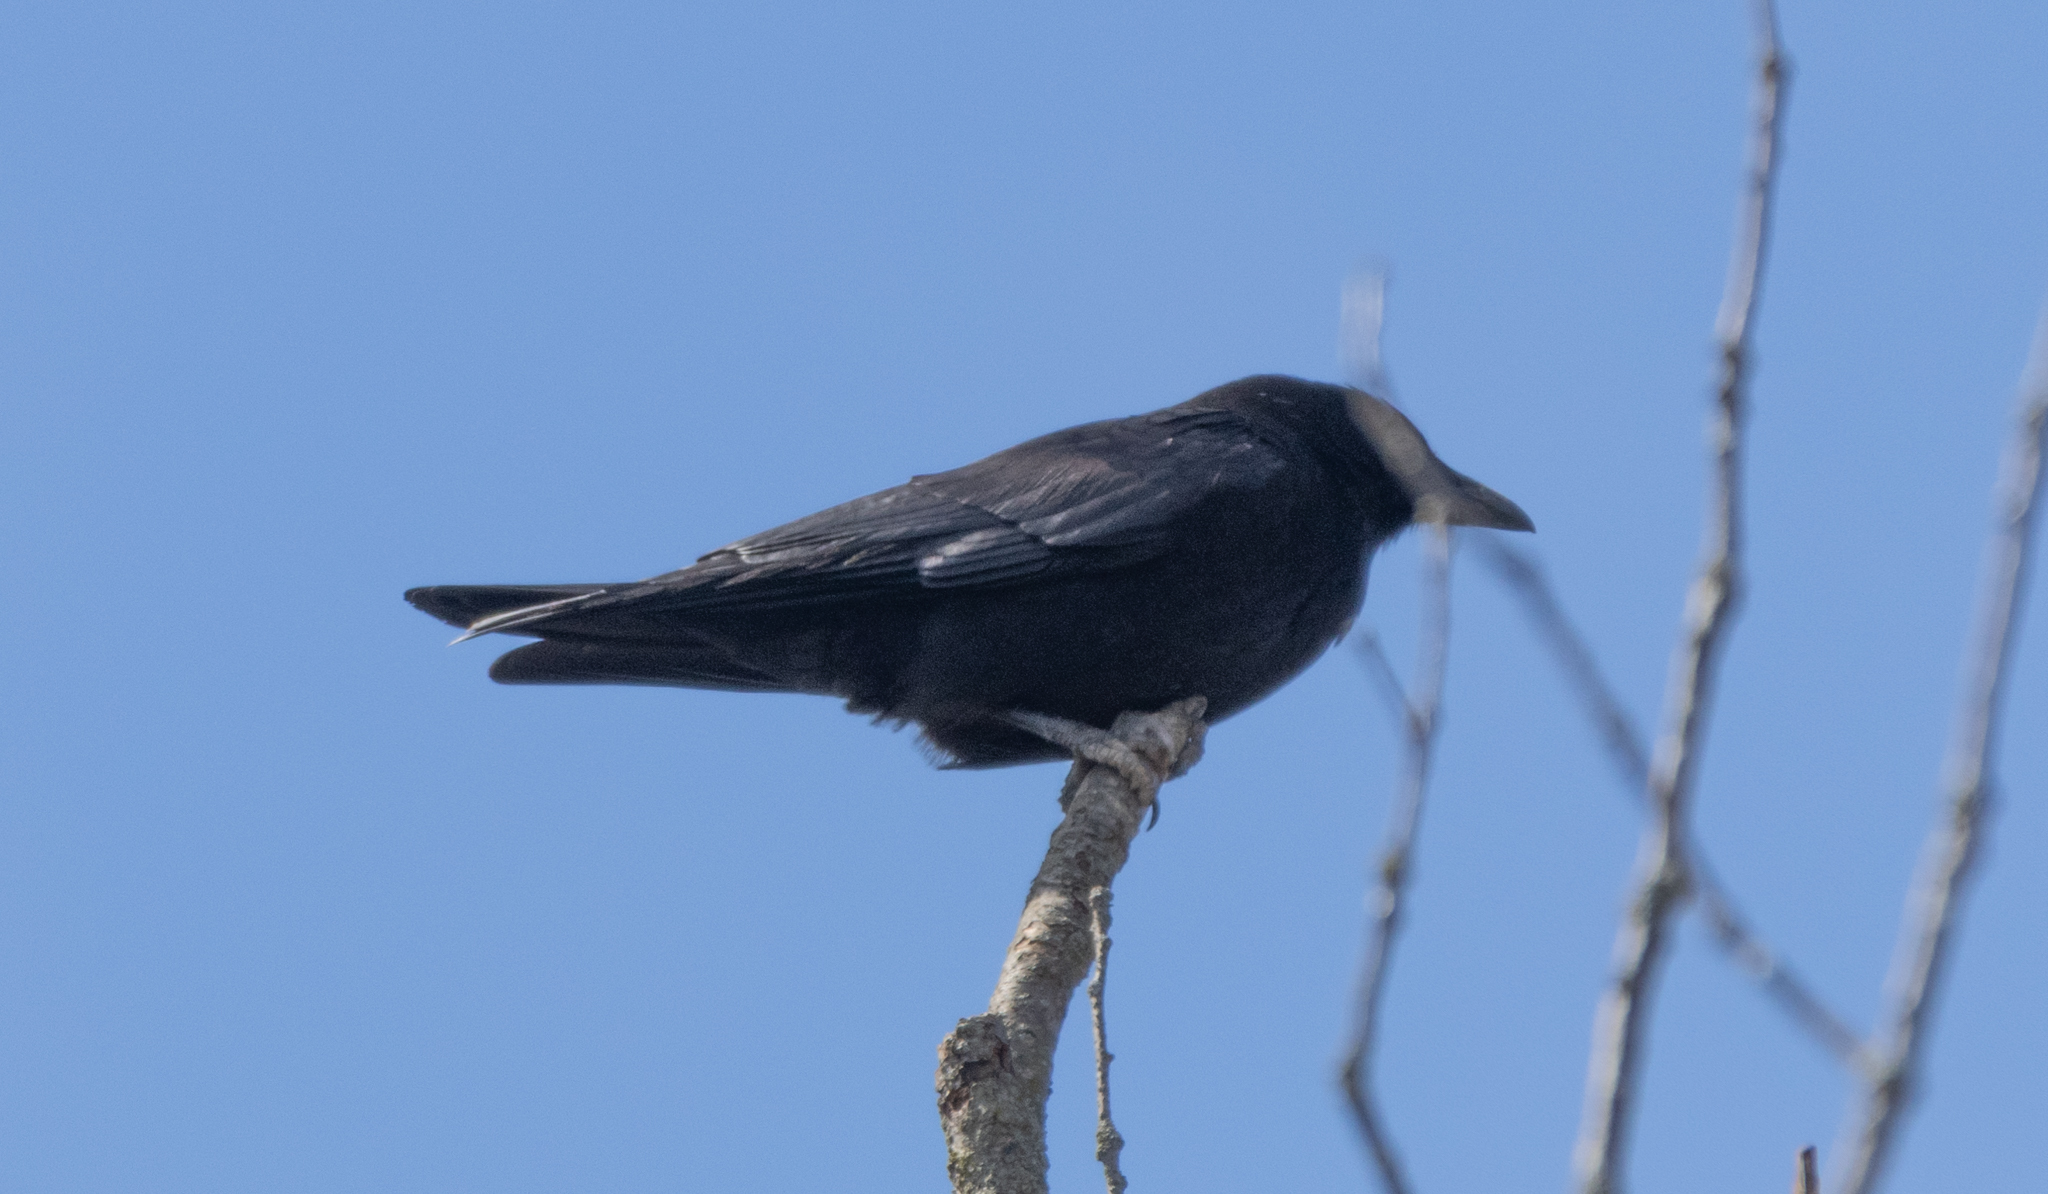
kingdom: Animalia
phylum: Chordata
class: Aves
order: Passeriformes
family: Corvidae
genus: Corvus
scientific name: Corvus brachyrhynchos
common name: American crow
